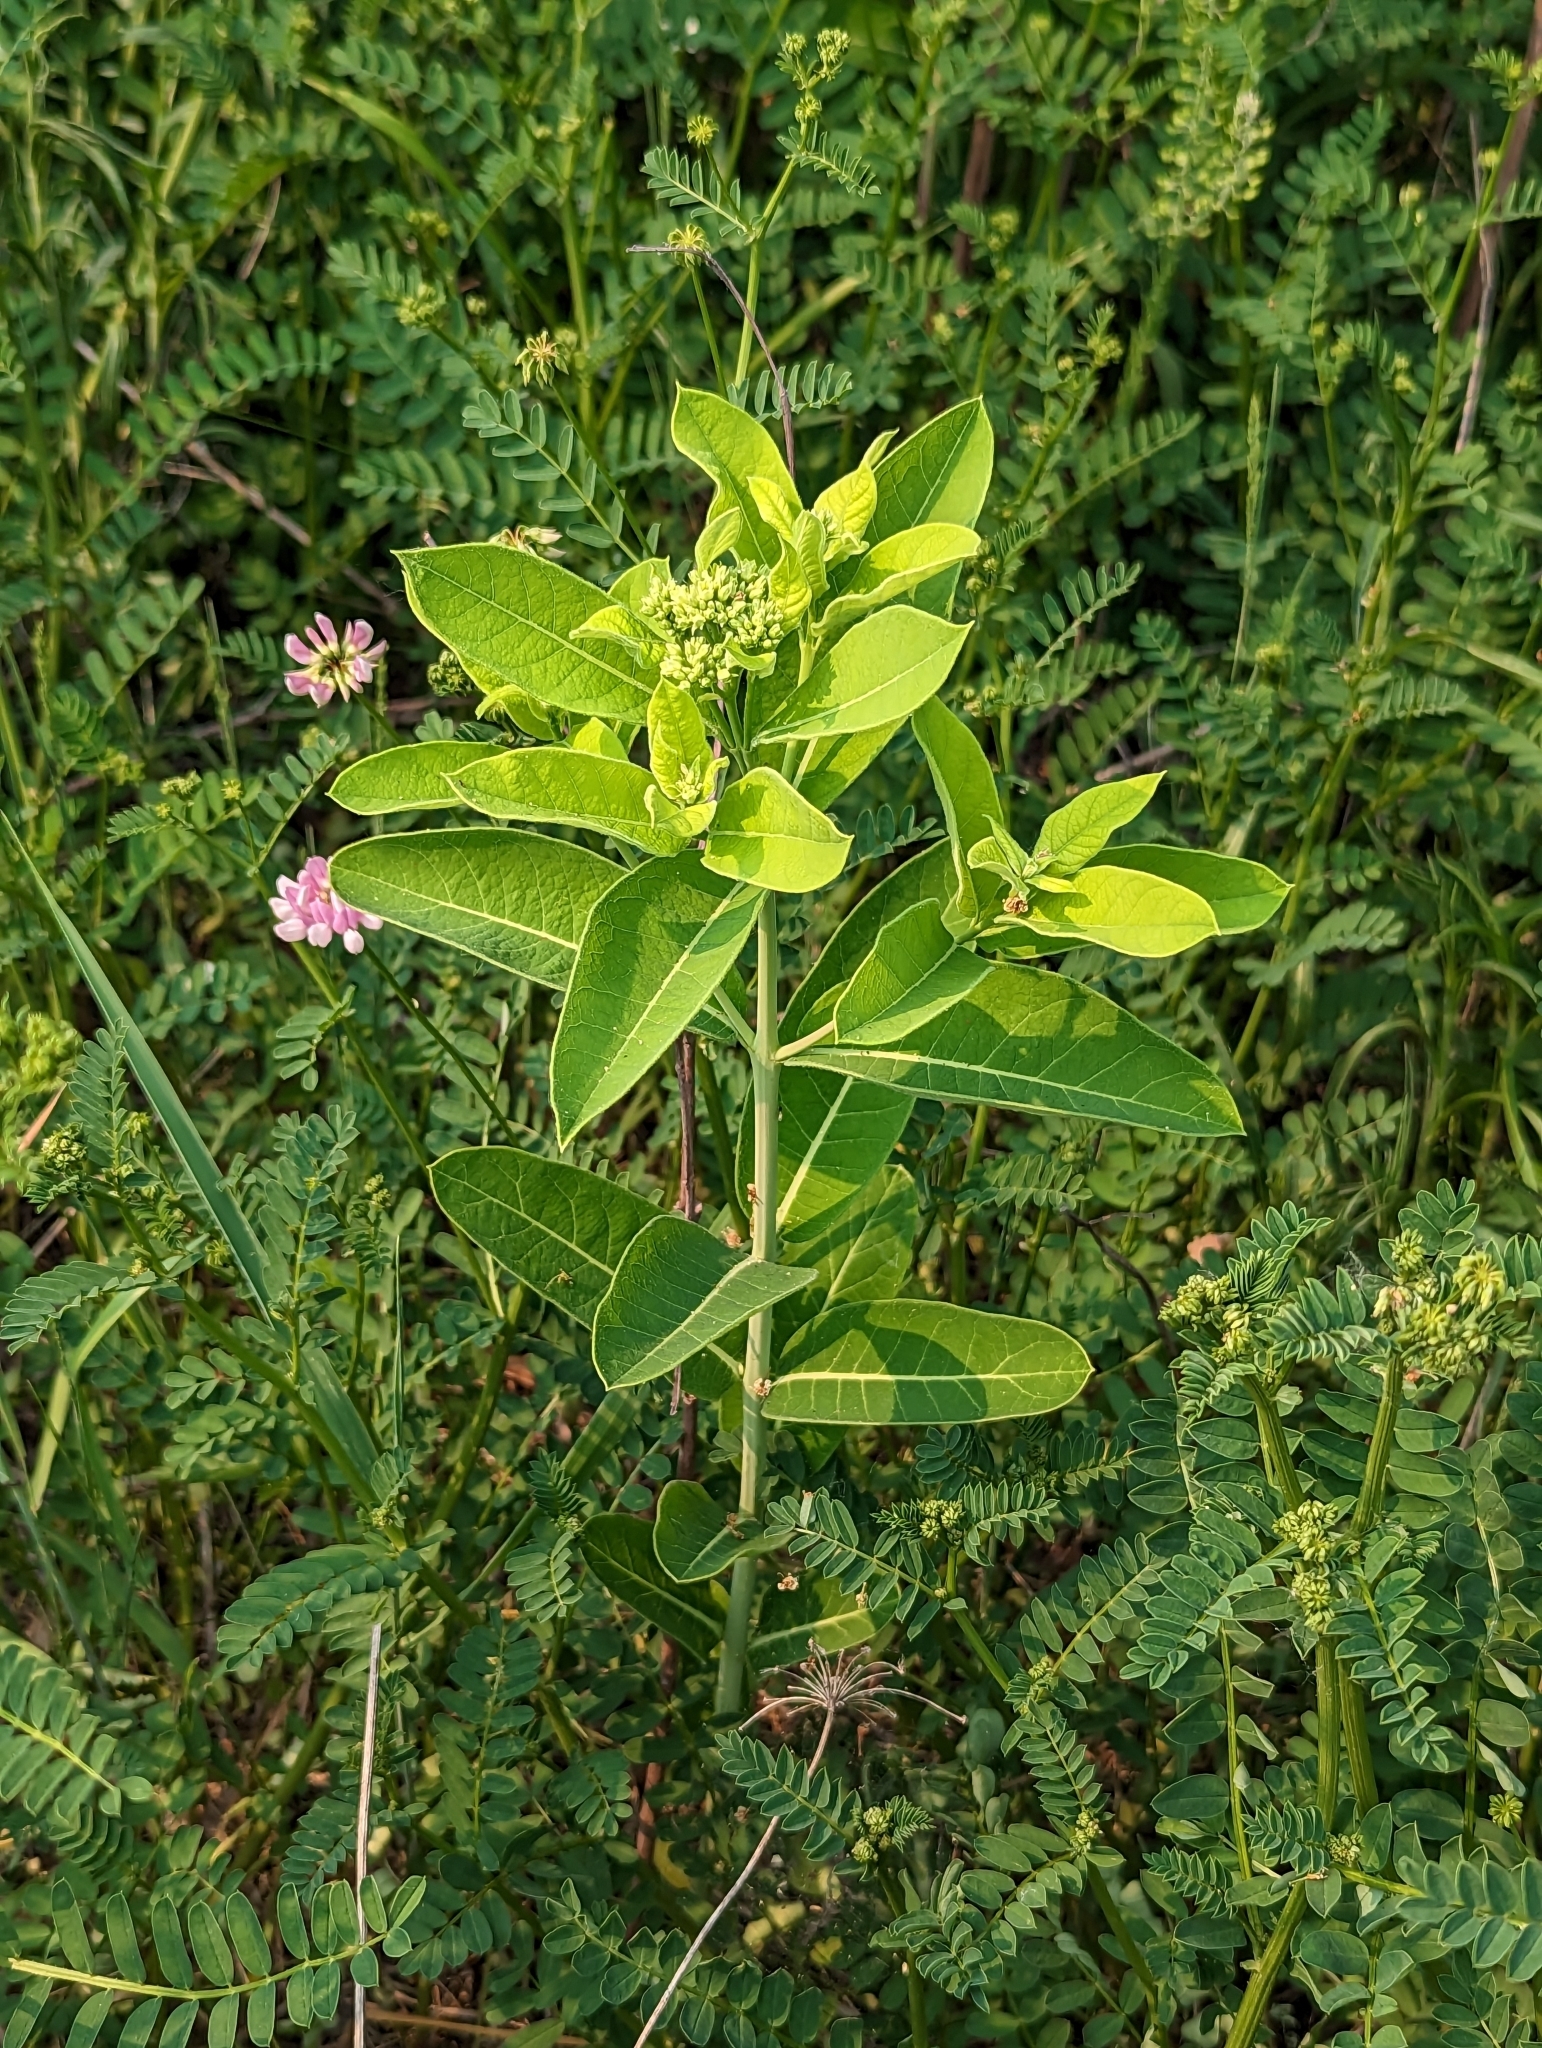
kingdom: Plantae
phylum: Tracheophyta
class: Magnoliopsida
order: Gentianales
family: Apocynaceae
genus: Apocynum
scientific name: Apocynum cannabinum
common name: Hemp dogbane
